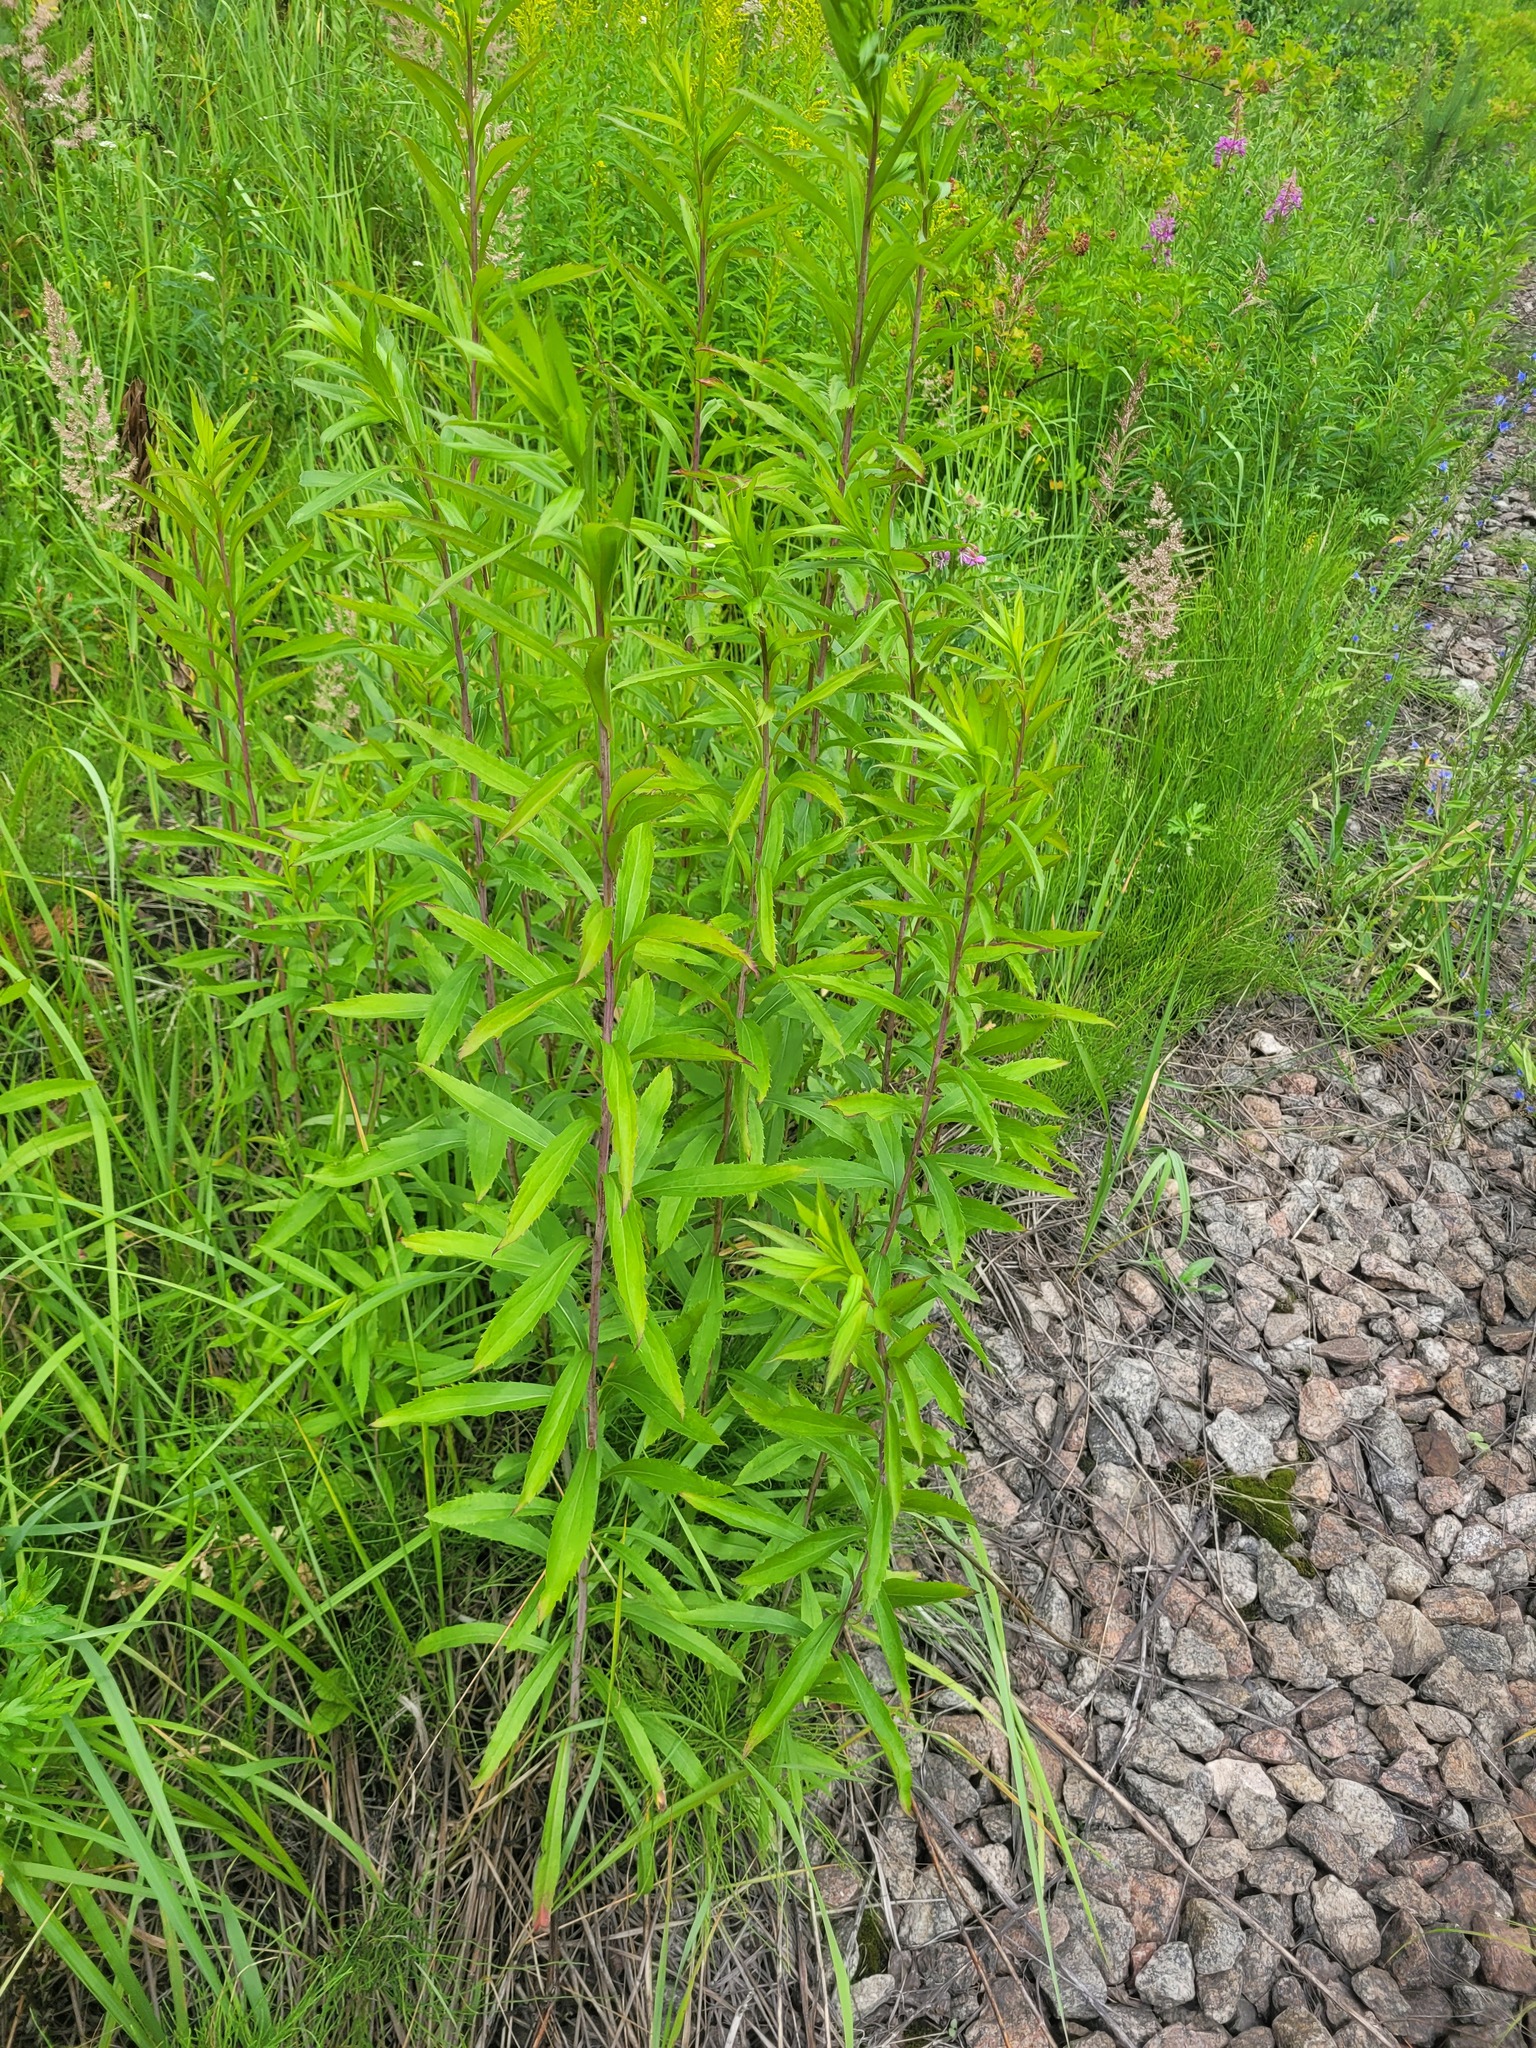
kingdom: Plantae
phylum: Tracheophyta
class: Magnoliopsida
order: Asterales
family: Asteraceae
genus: Solidago
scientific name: Solidago gigantea
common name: Giant goldenrod
